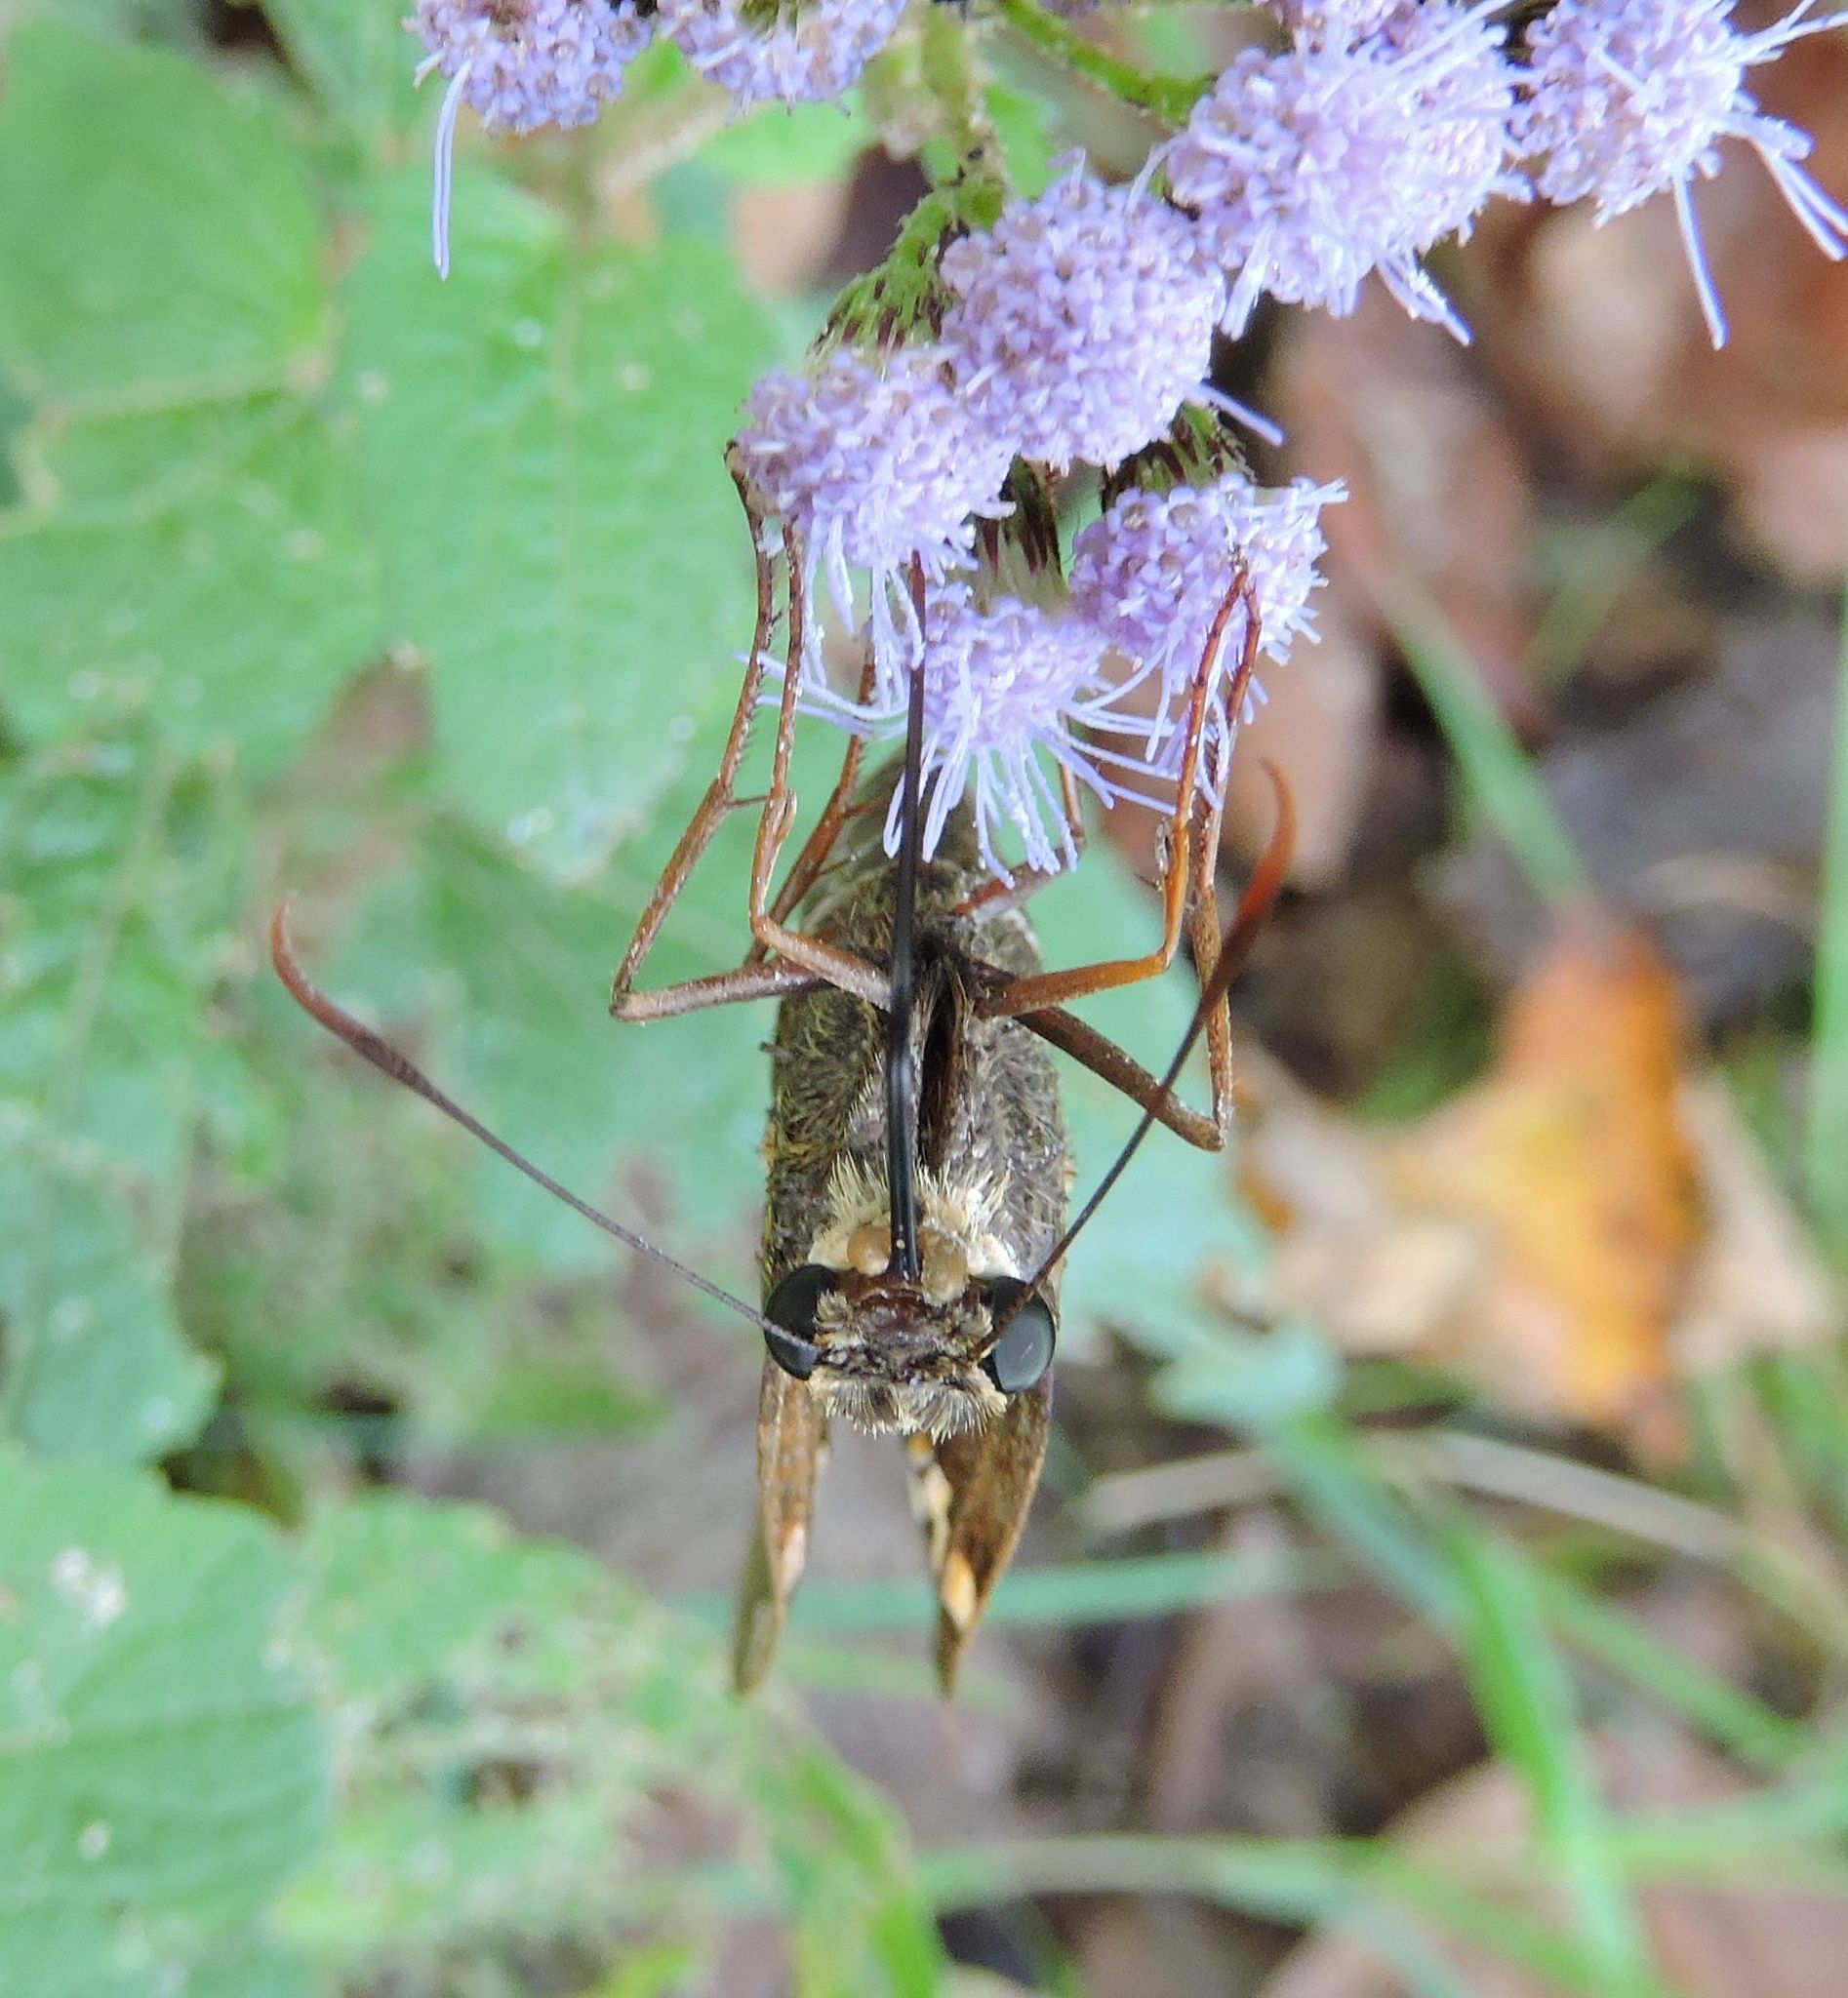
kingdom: Animalia
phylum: Arthropoda
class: Insecta
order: Lepidoptera
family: Hesperiidae
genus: Epargyreus
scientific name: Epargyreus clarus
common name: Silver-spotted skipper
